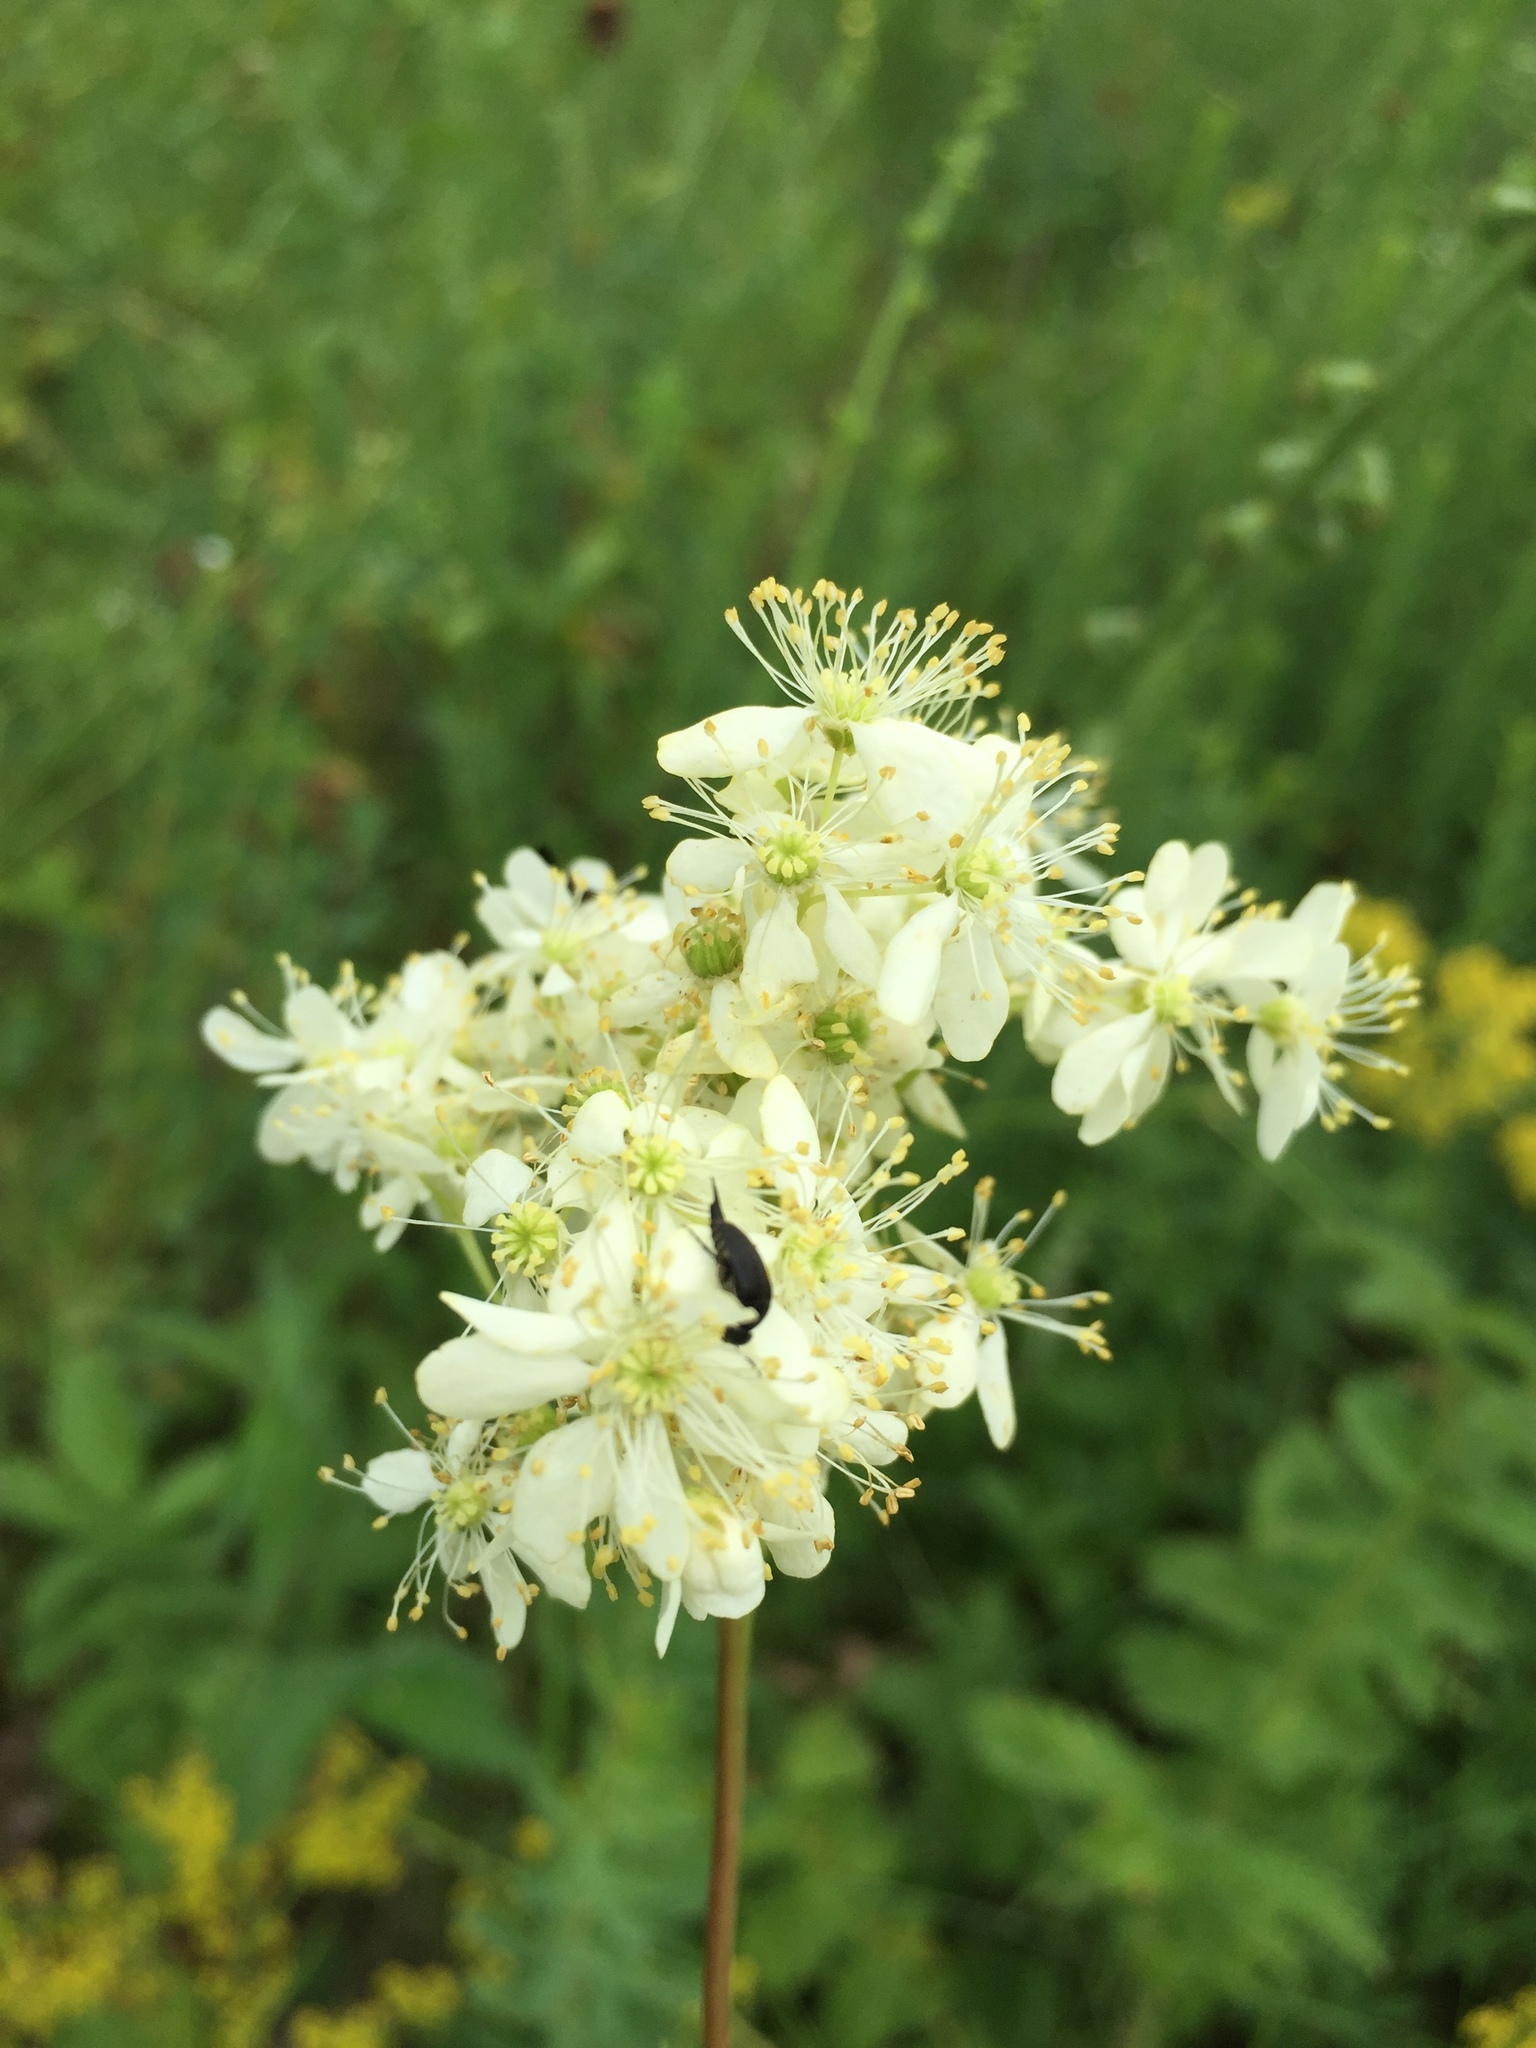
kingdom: Plantae
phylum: Tracheophyta
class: Magnoliopsida
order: Rosales
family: Rosaceae
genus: Filipendula
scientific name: Filipendula vulgaris
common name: Dropwort
